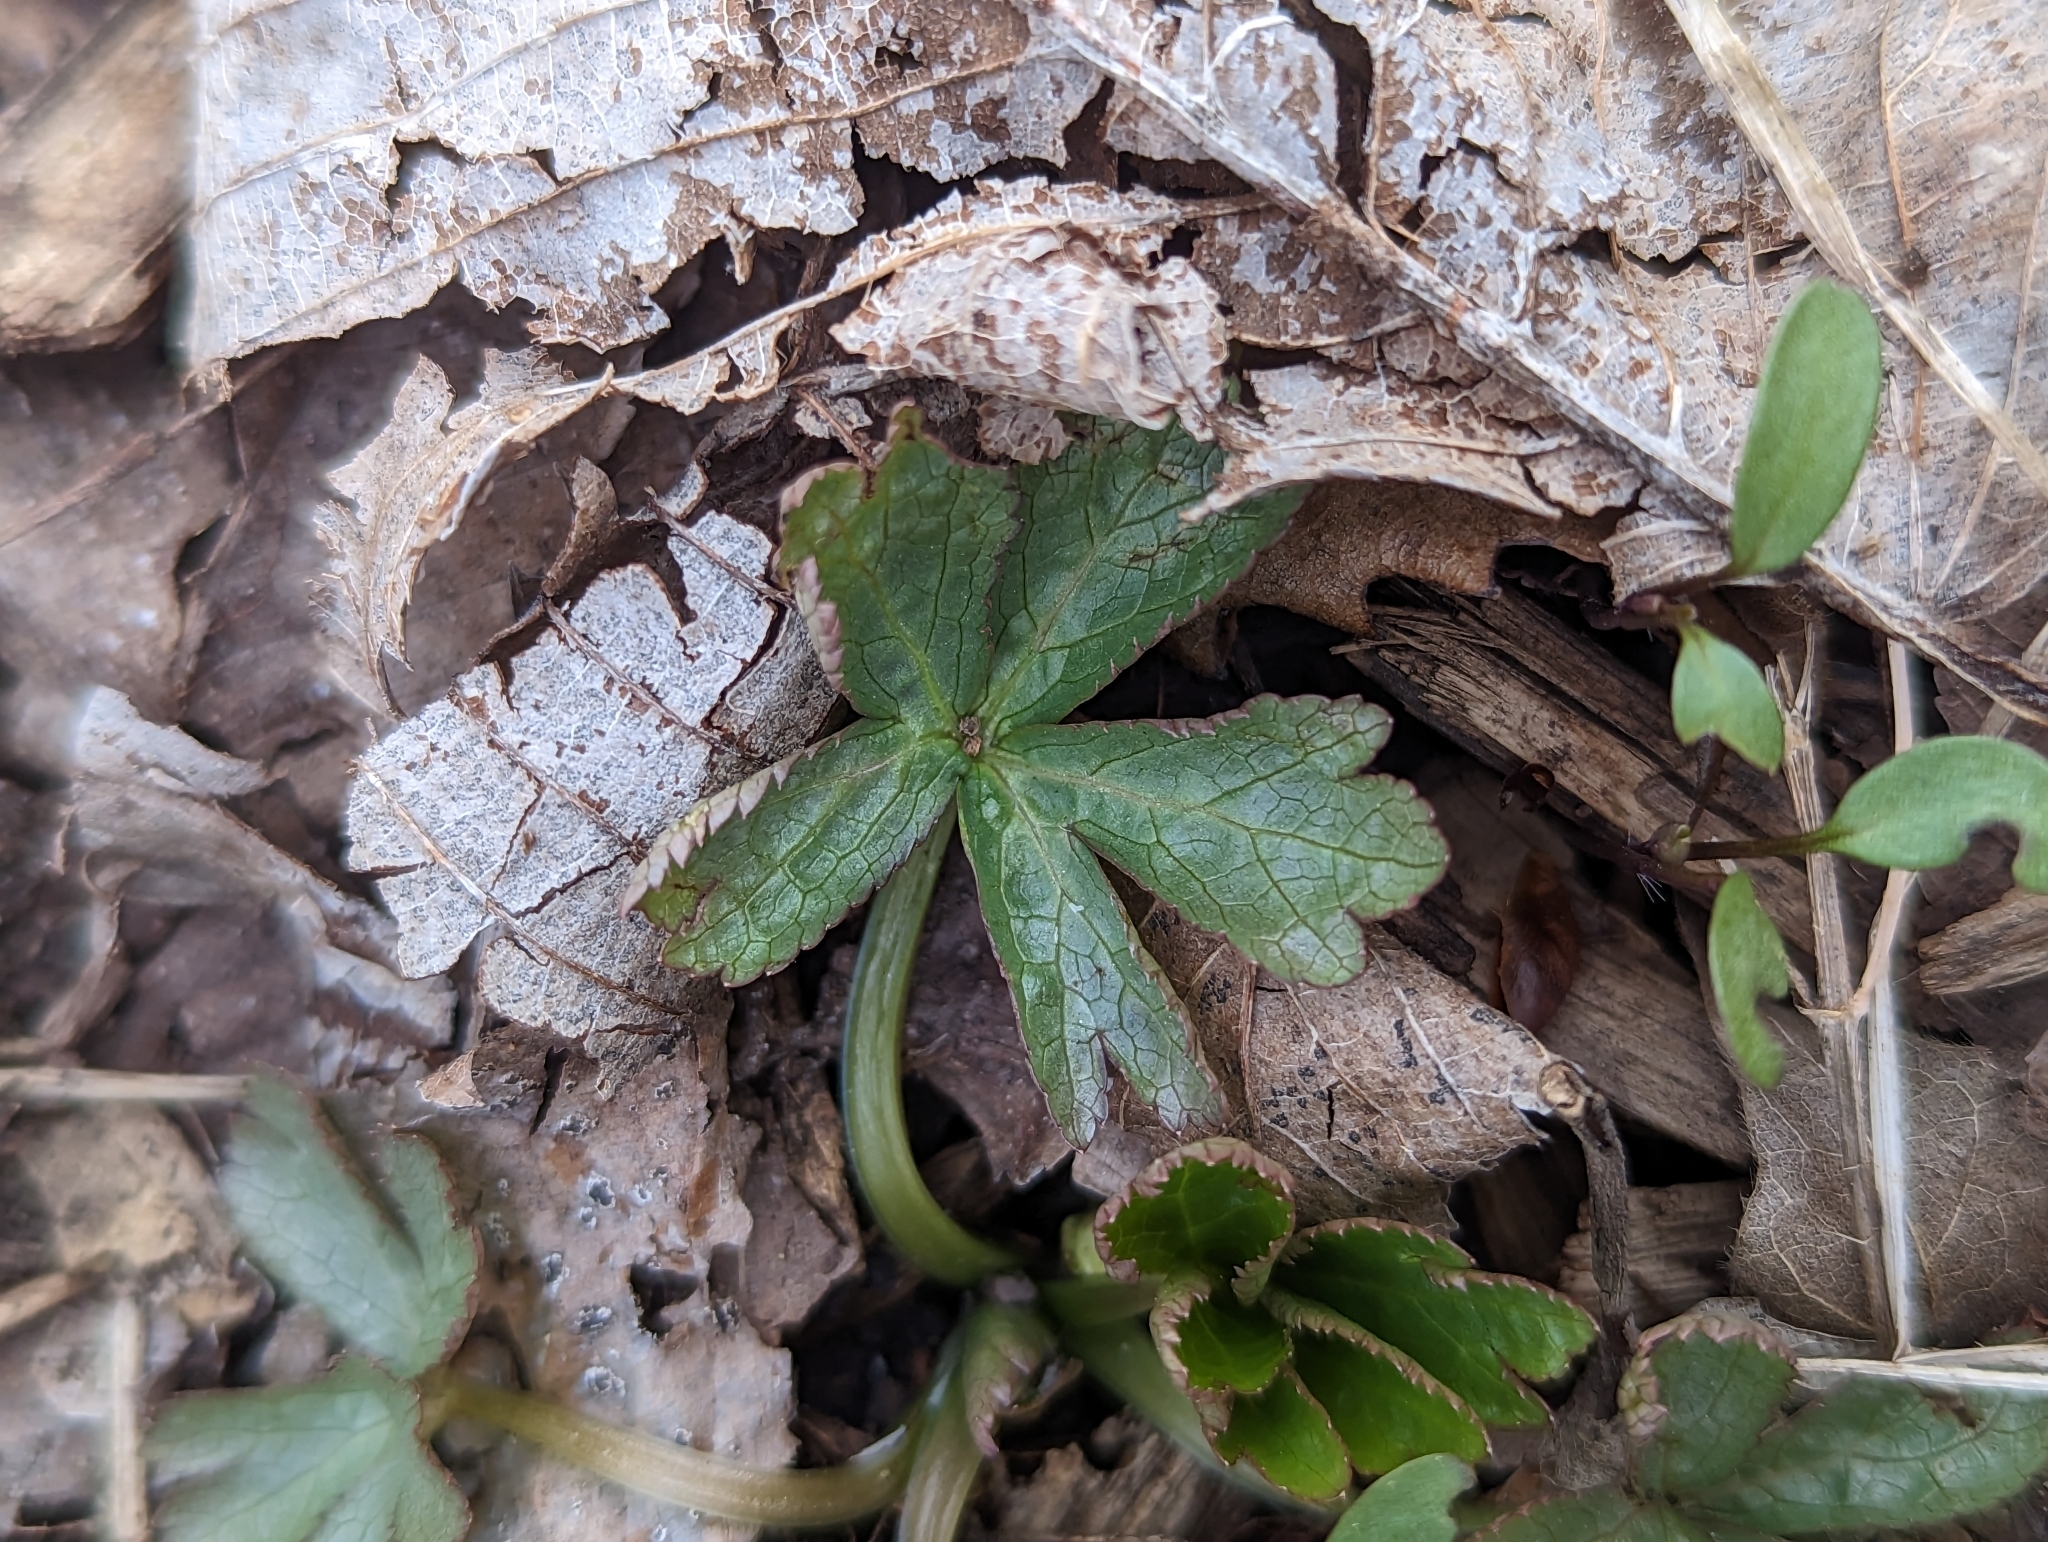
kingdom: Plantae
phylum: Tracheophyta
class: Magnoliopsida
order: Geraniales
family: Geraniaceae
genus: Geranium
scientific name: Geranium maculatum
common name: Spotted geranium
